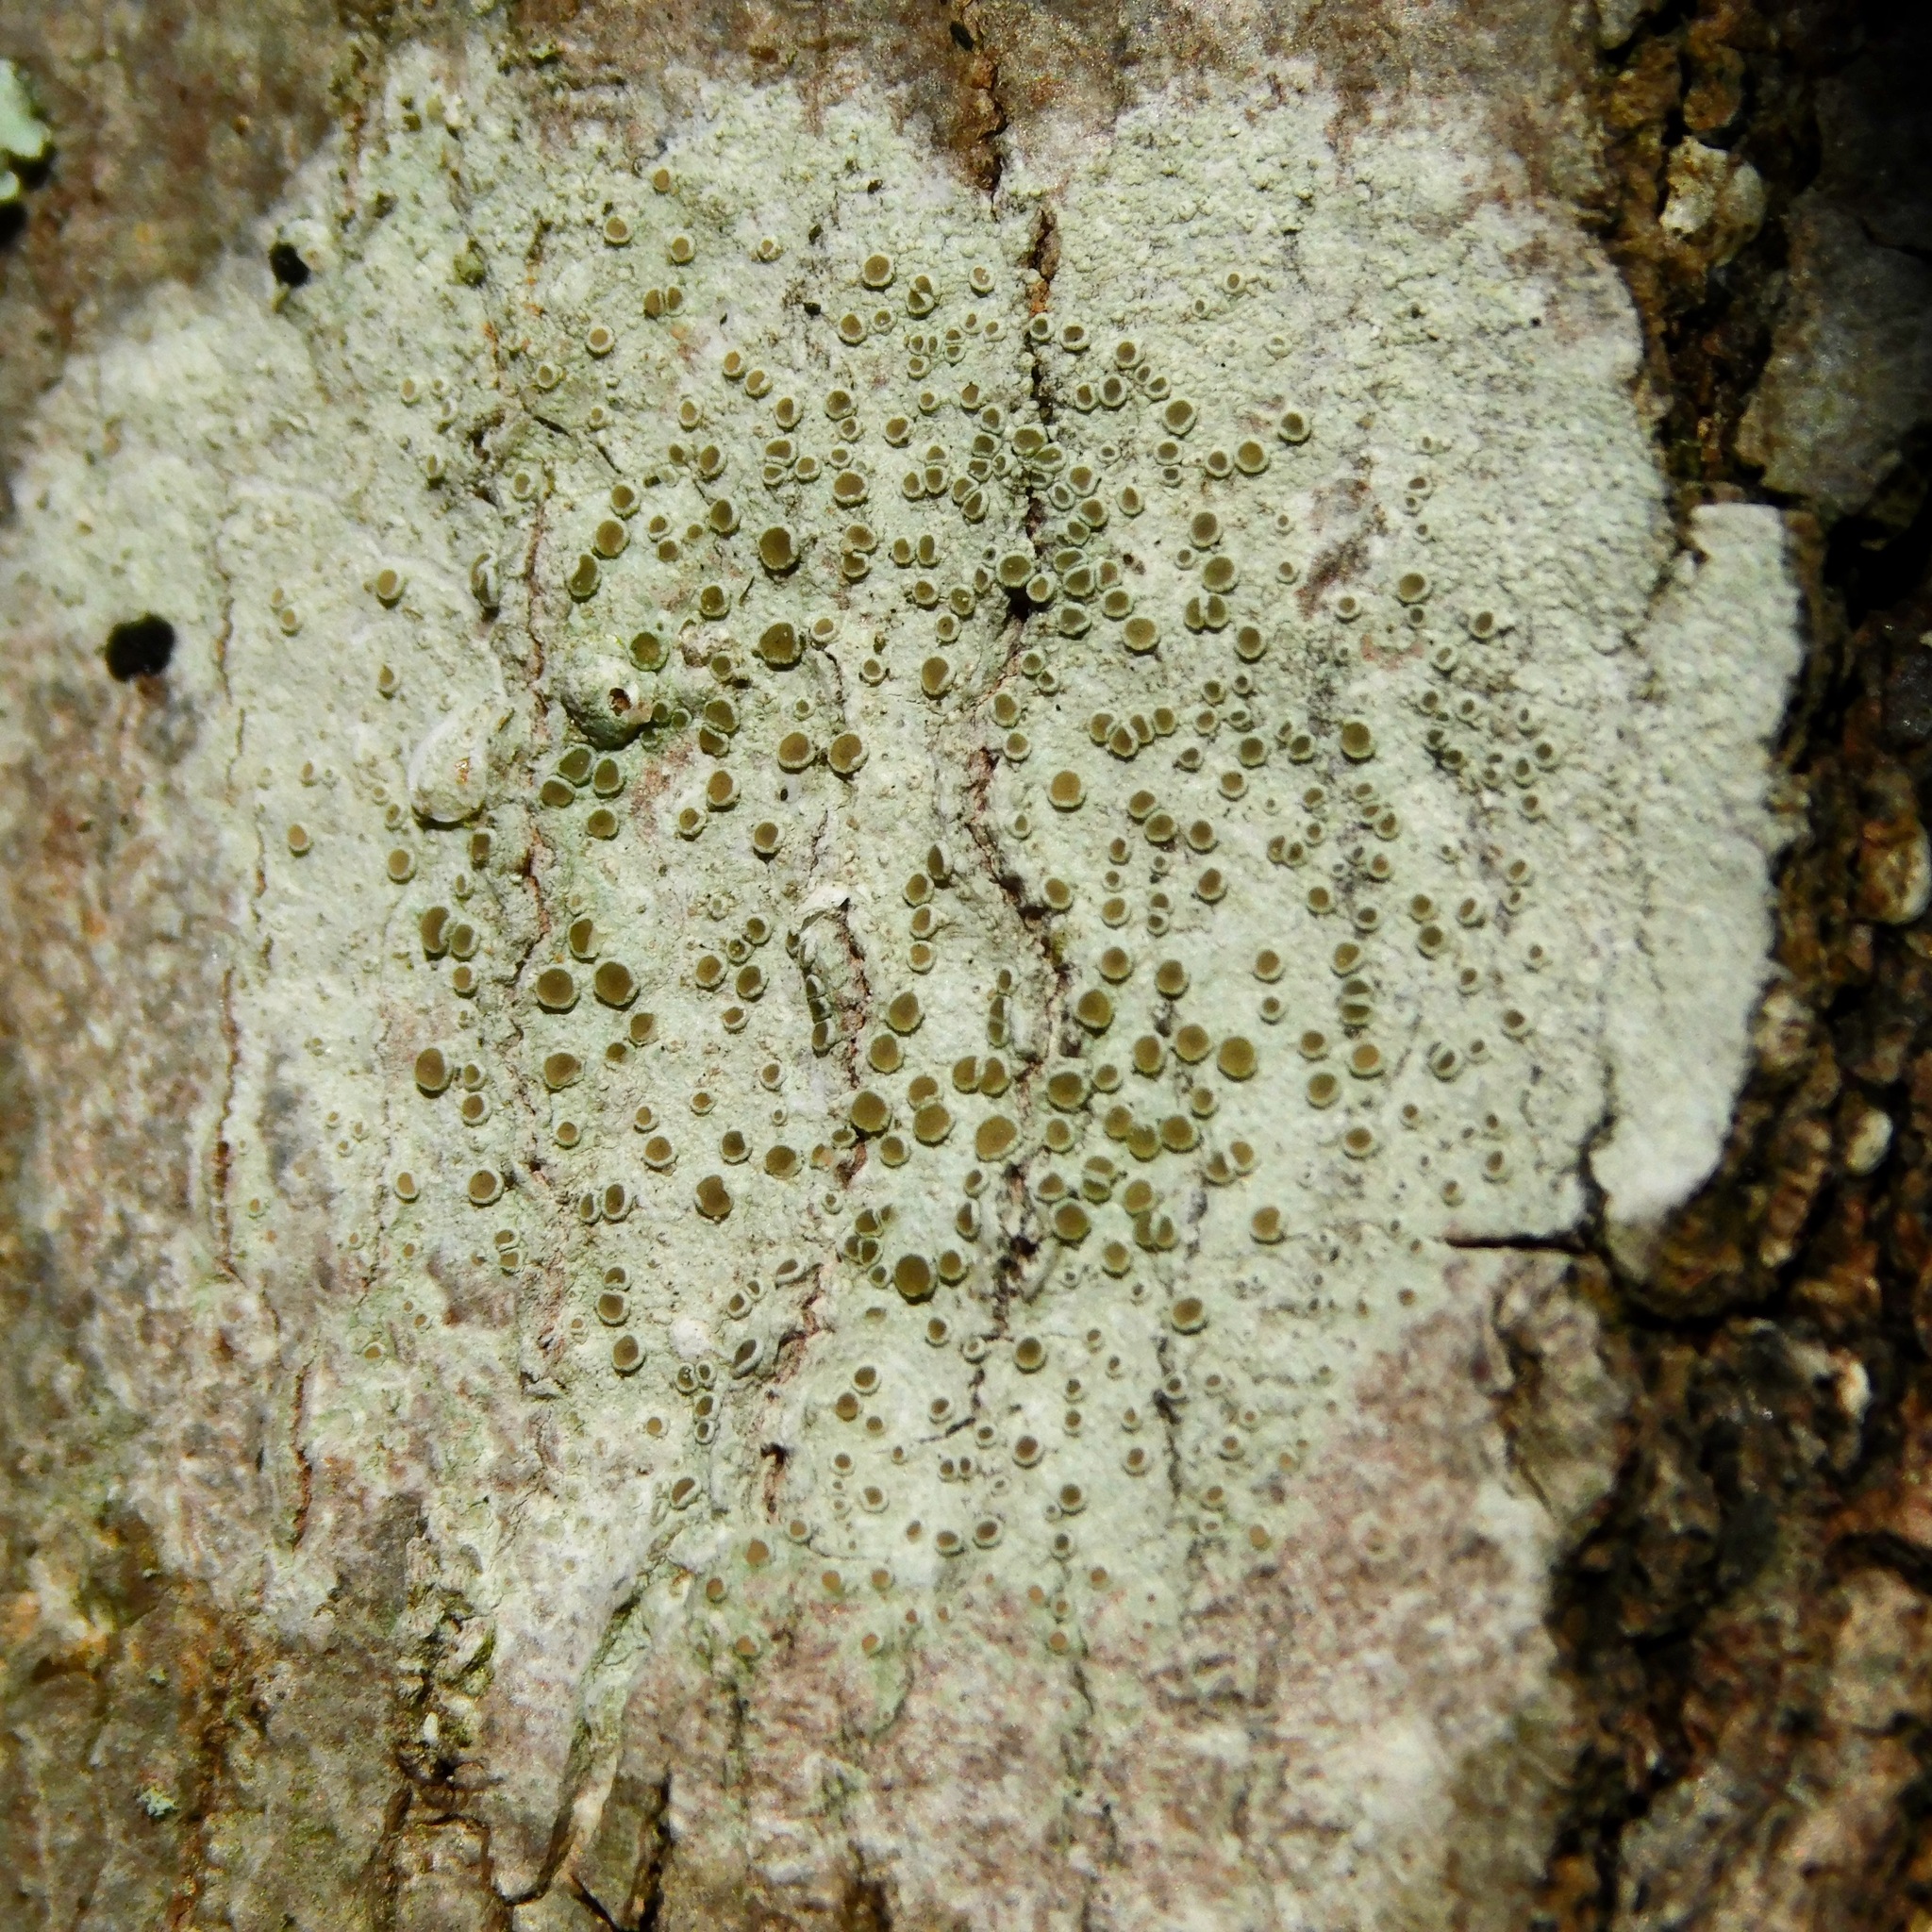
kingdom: Fungi
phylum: Ascomycota
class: Lecanoromycetes
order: Lecanorales
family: Lecanoraceae
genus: Lecanora
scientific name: Lecanora hybocarpa
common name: Bumpy rim-lichen
